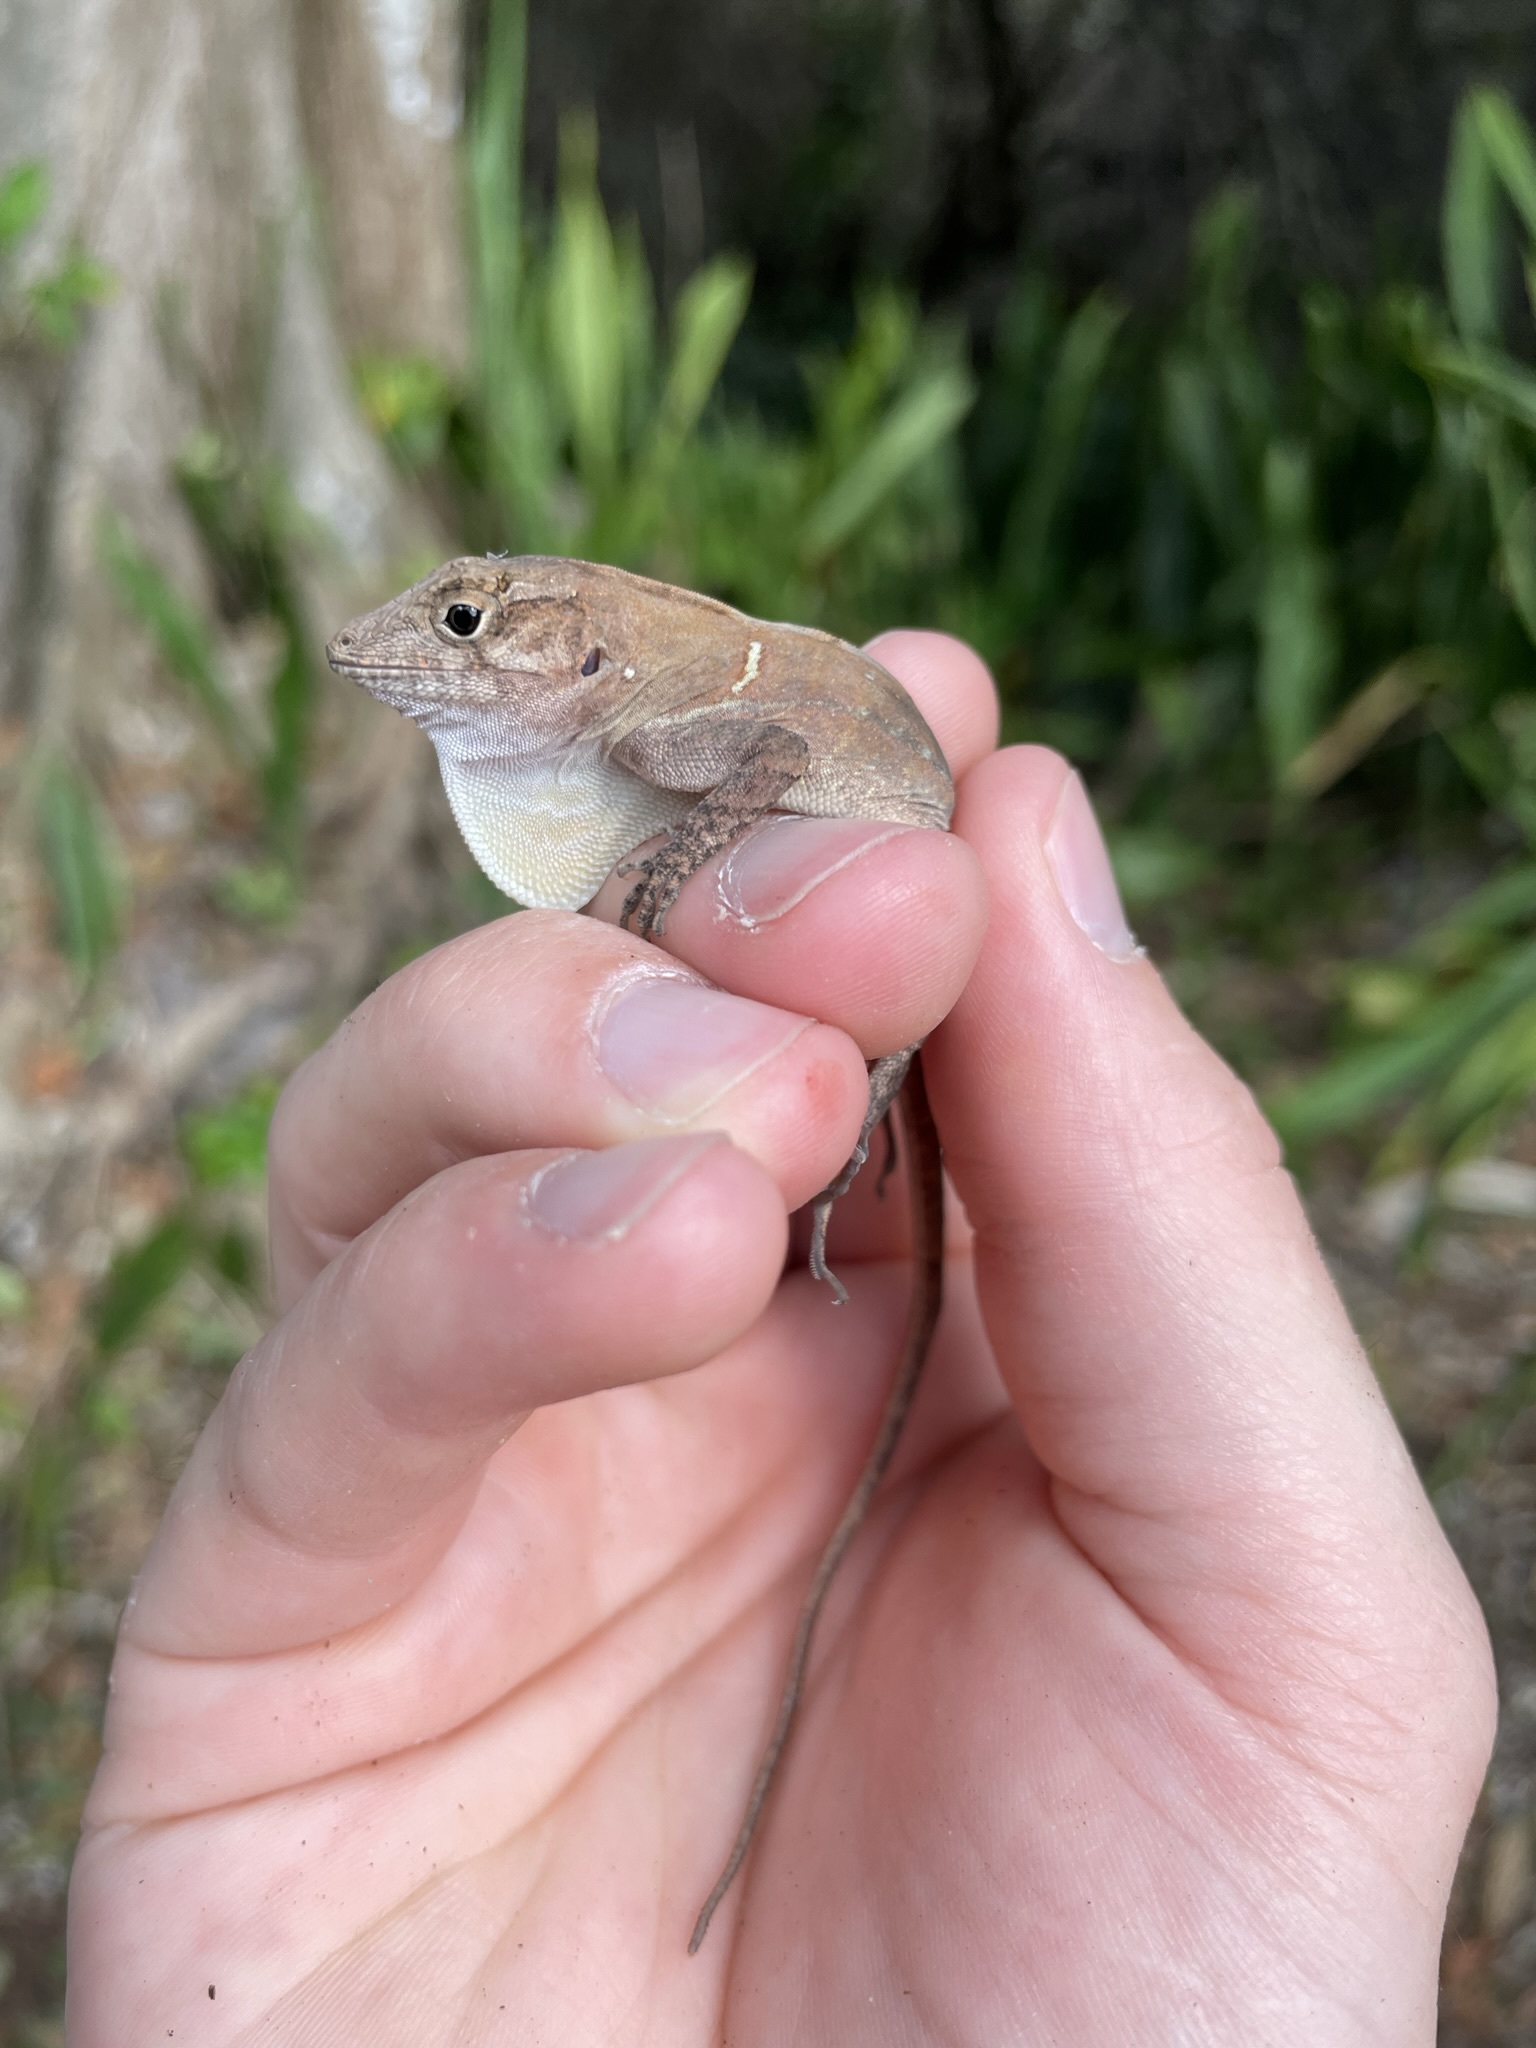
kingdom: Animalia
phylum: Chordata
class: Squamata
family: Dactyloidae
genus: Anolis
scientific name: Anolis cybotes
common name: Large-headed anole
